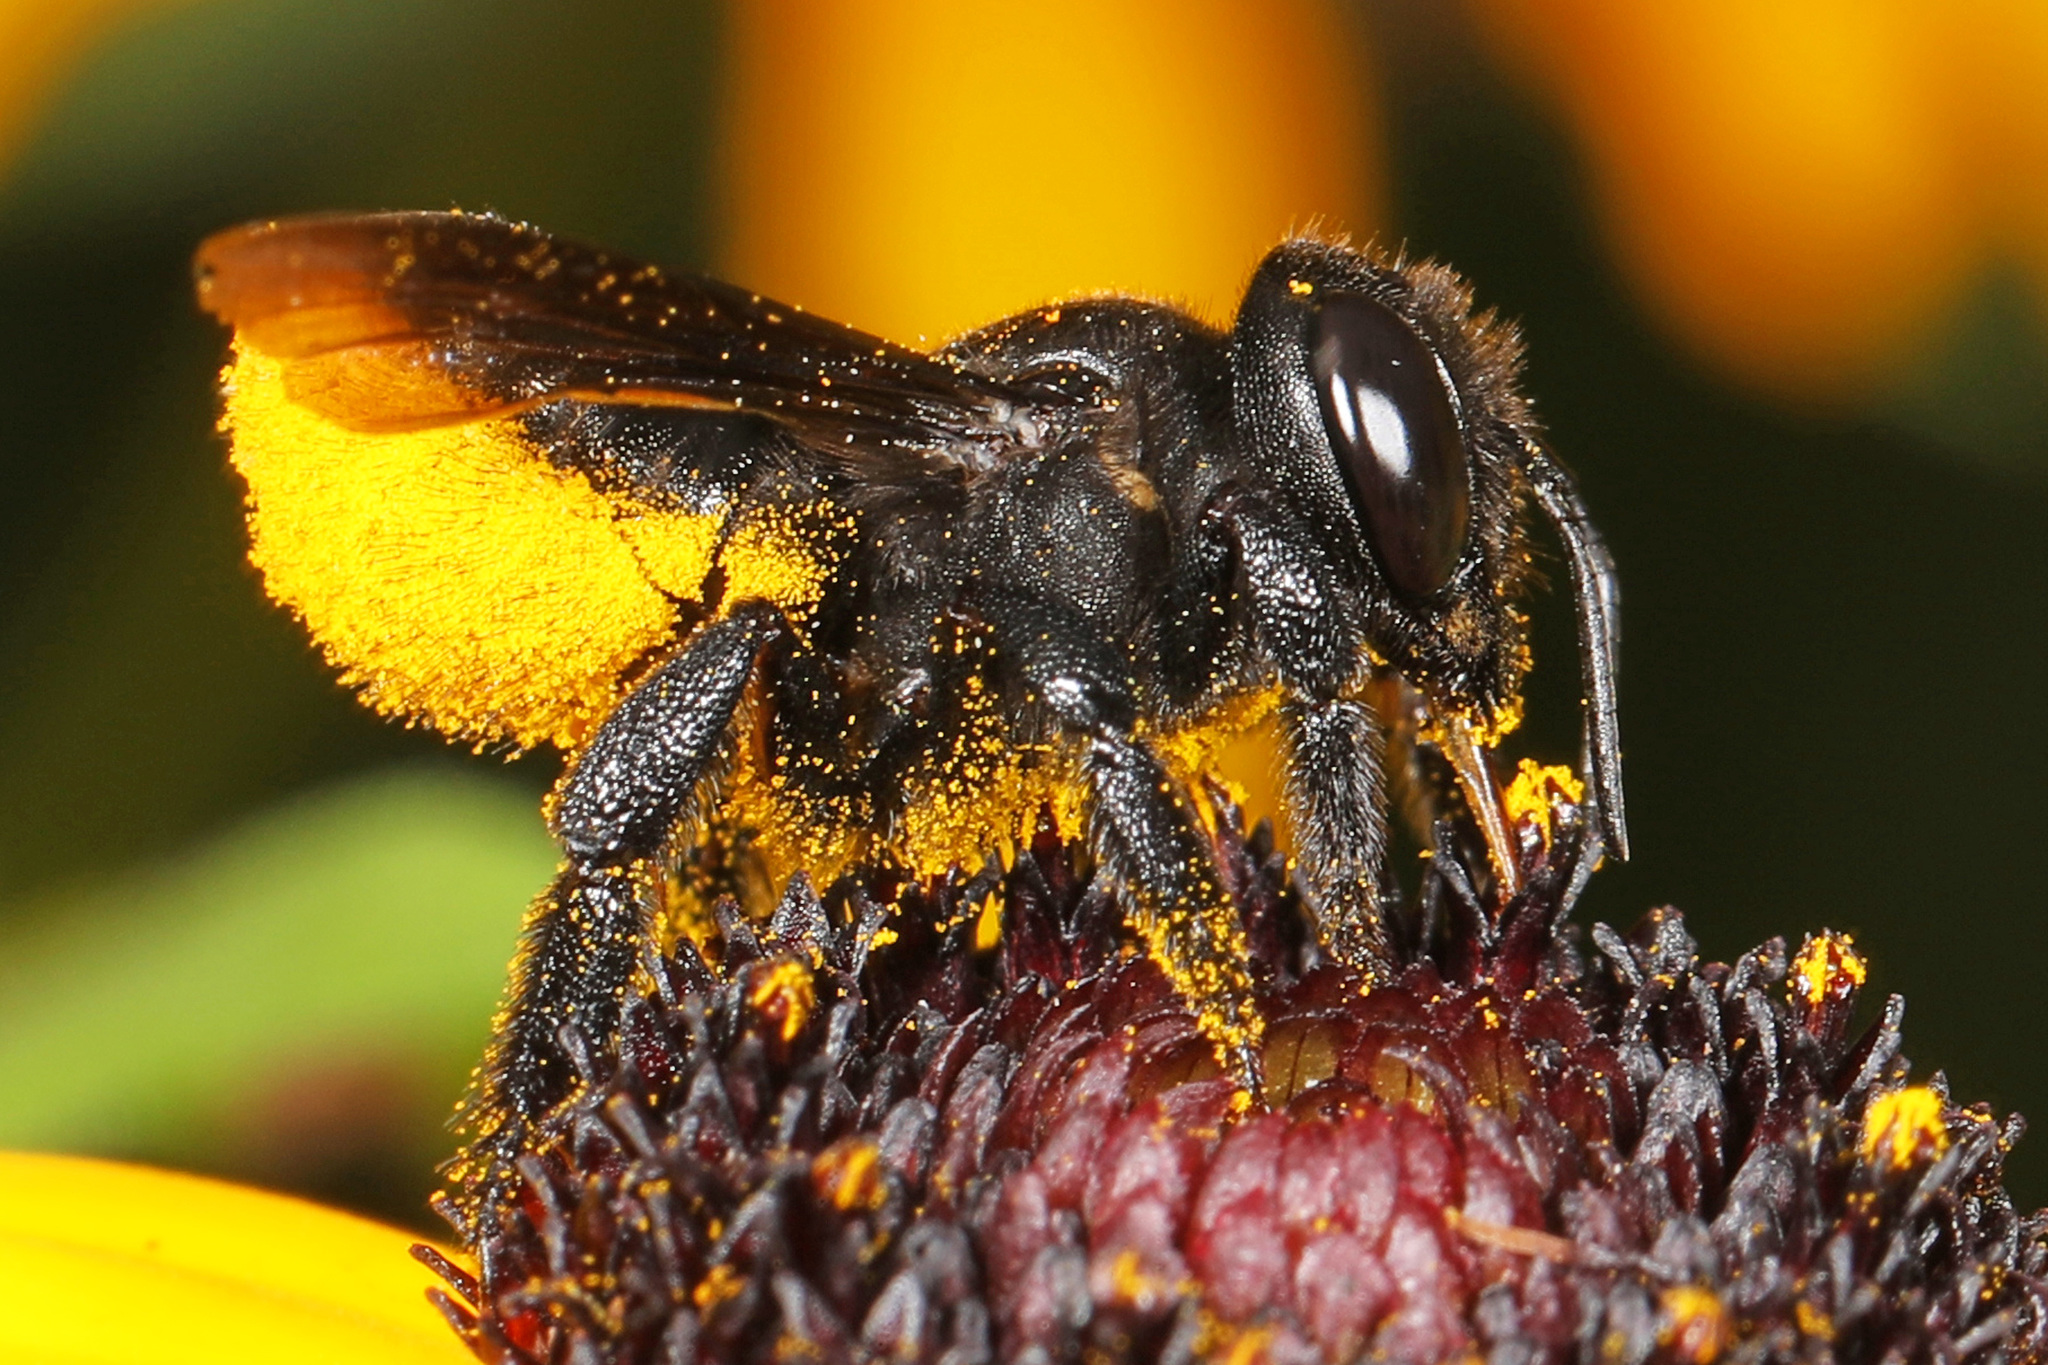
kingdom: Animalia
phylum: Arthropoda
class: Insecta
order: Hymenoptera
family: Megachilidae
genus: Megachile
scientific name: Megachile xylocopoides
